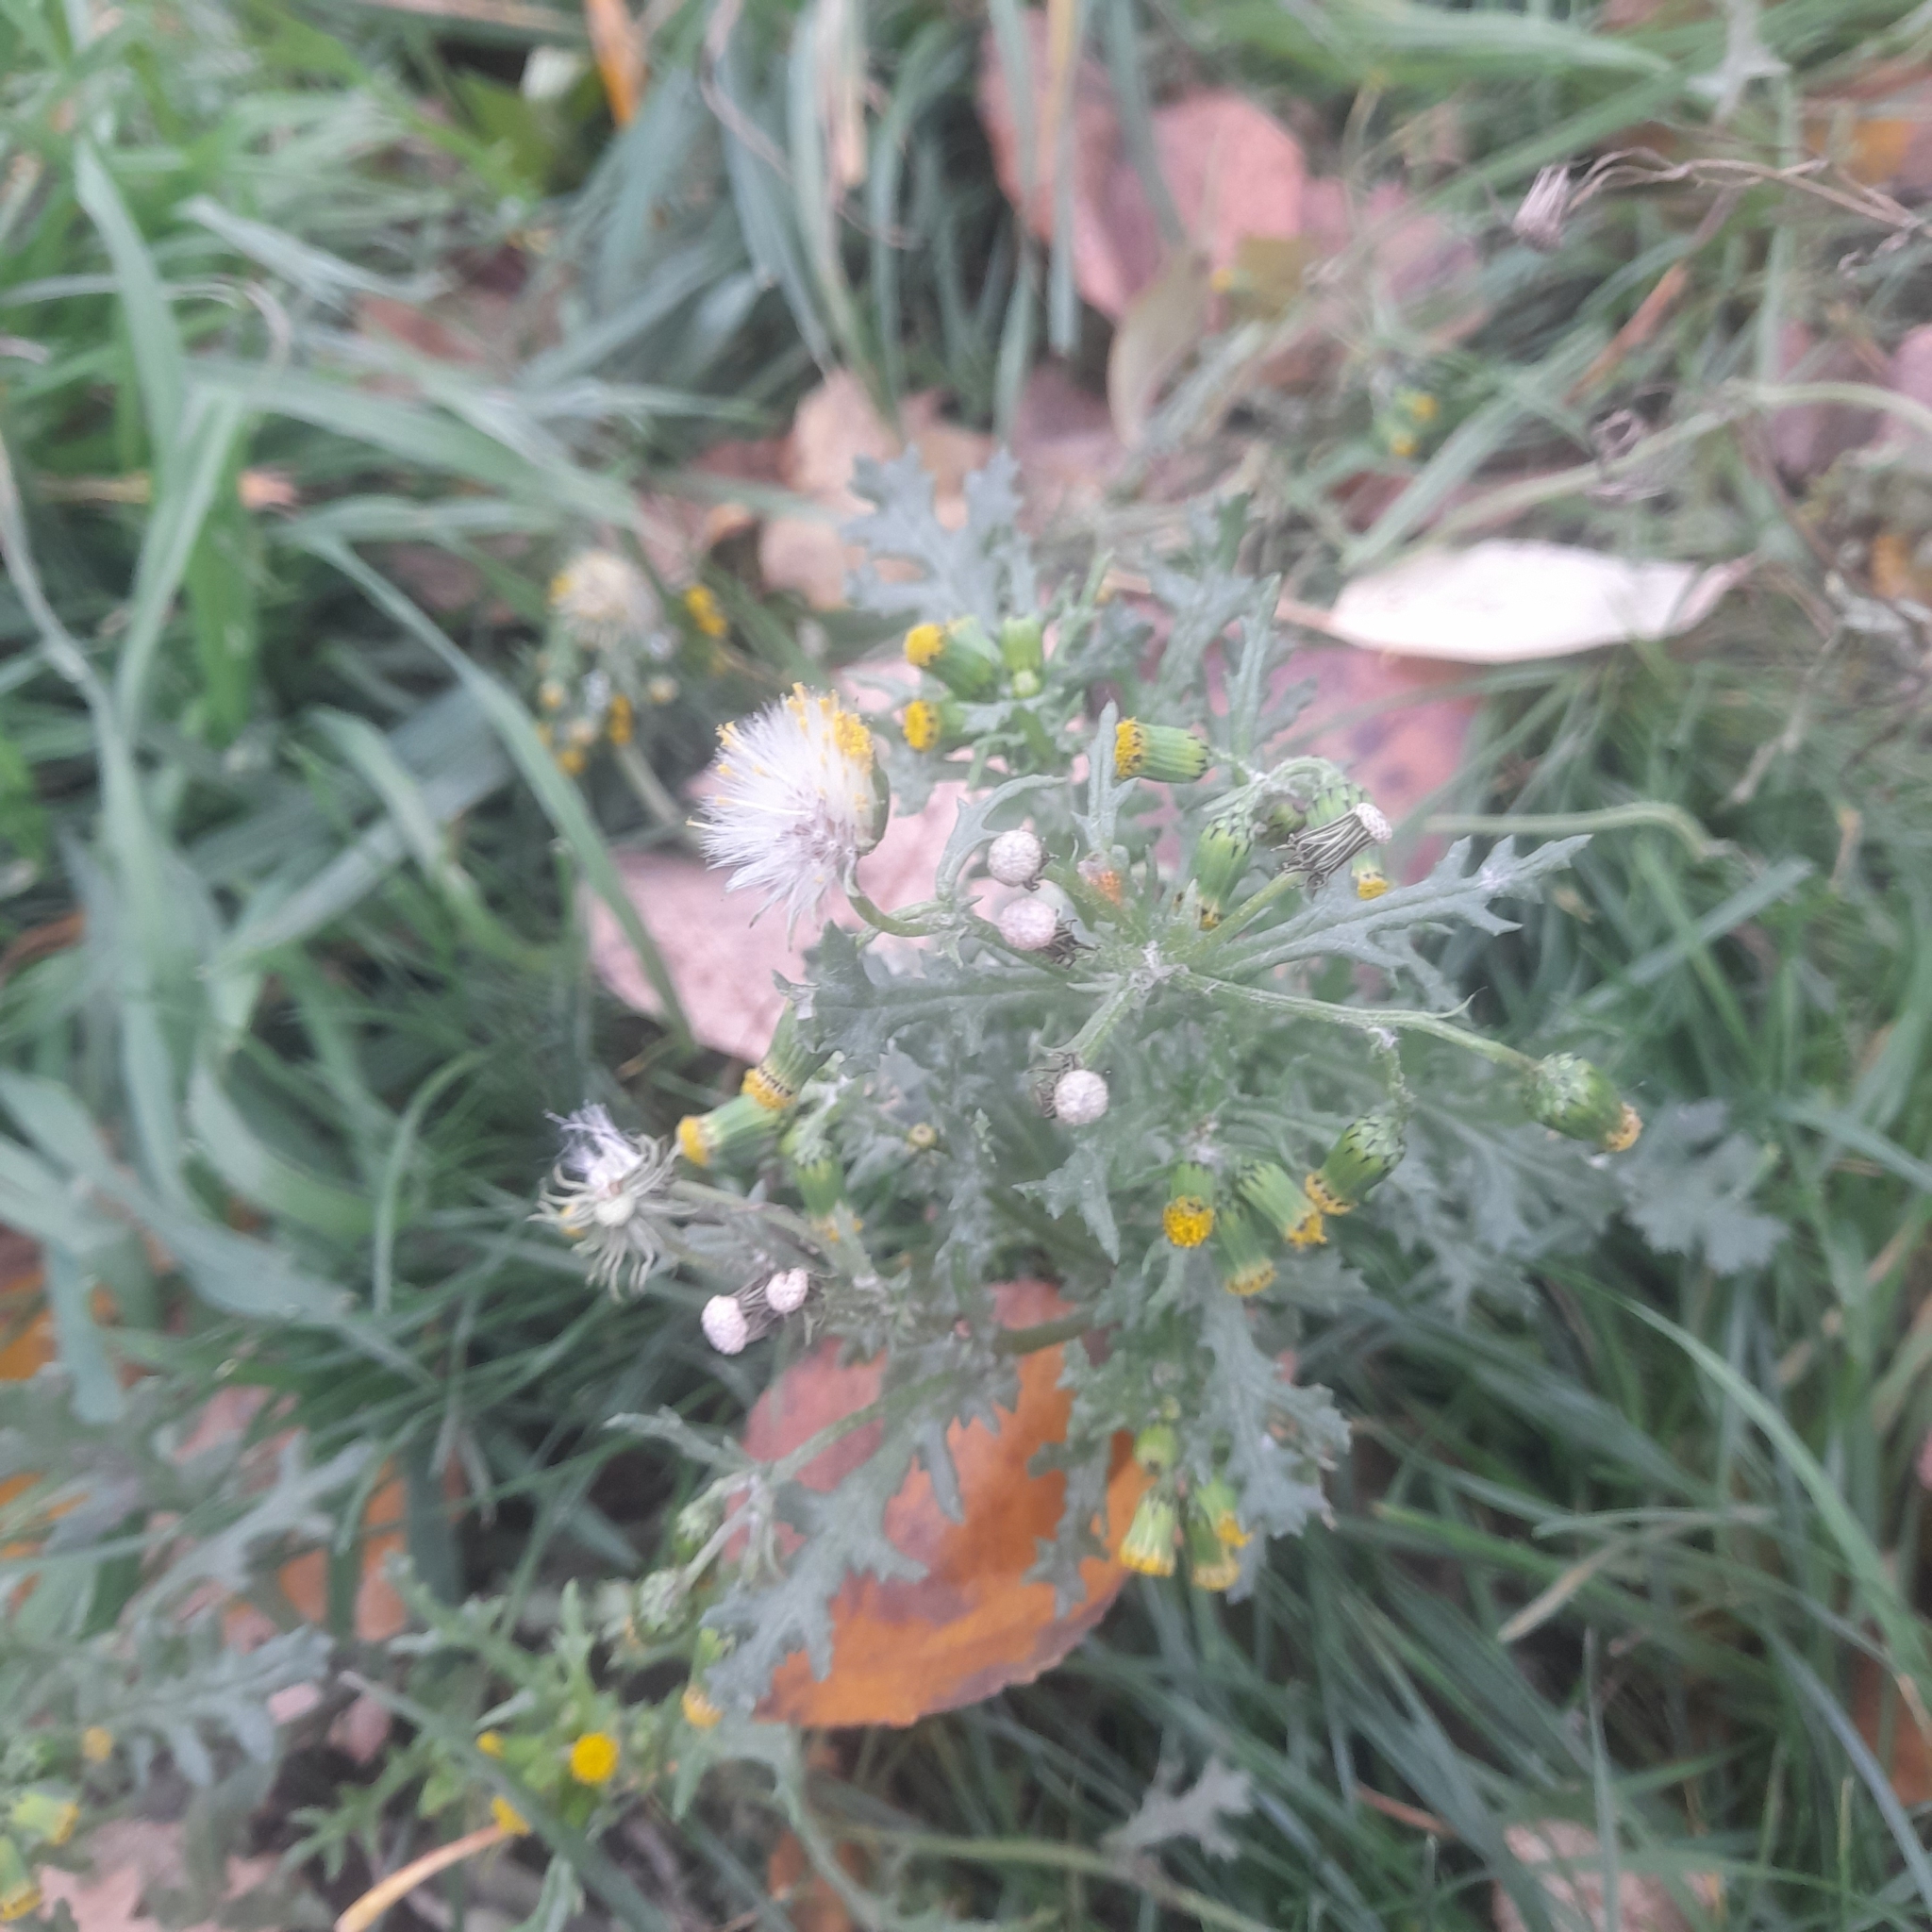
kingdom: Plantae
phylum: Tracheophyta
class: Magnoliopsida
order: Asterales
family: Asteraceae
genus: Senecio
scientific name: Senecio vulgaris
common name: Old-man-in-the-spring
